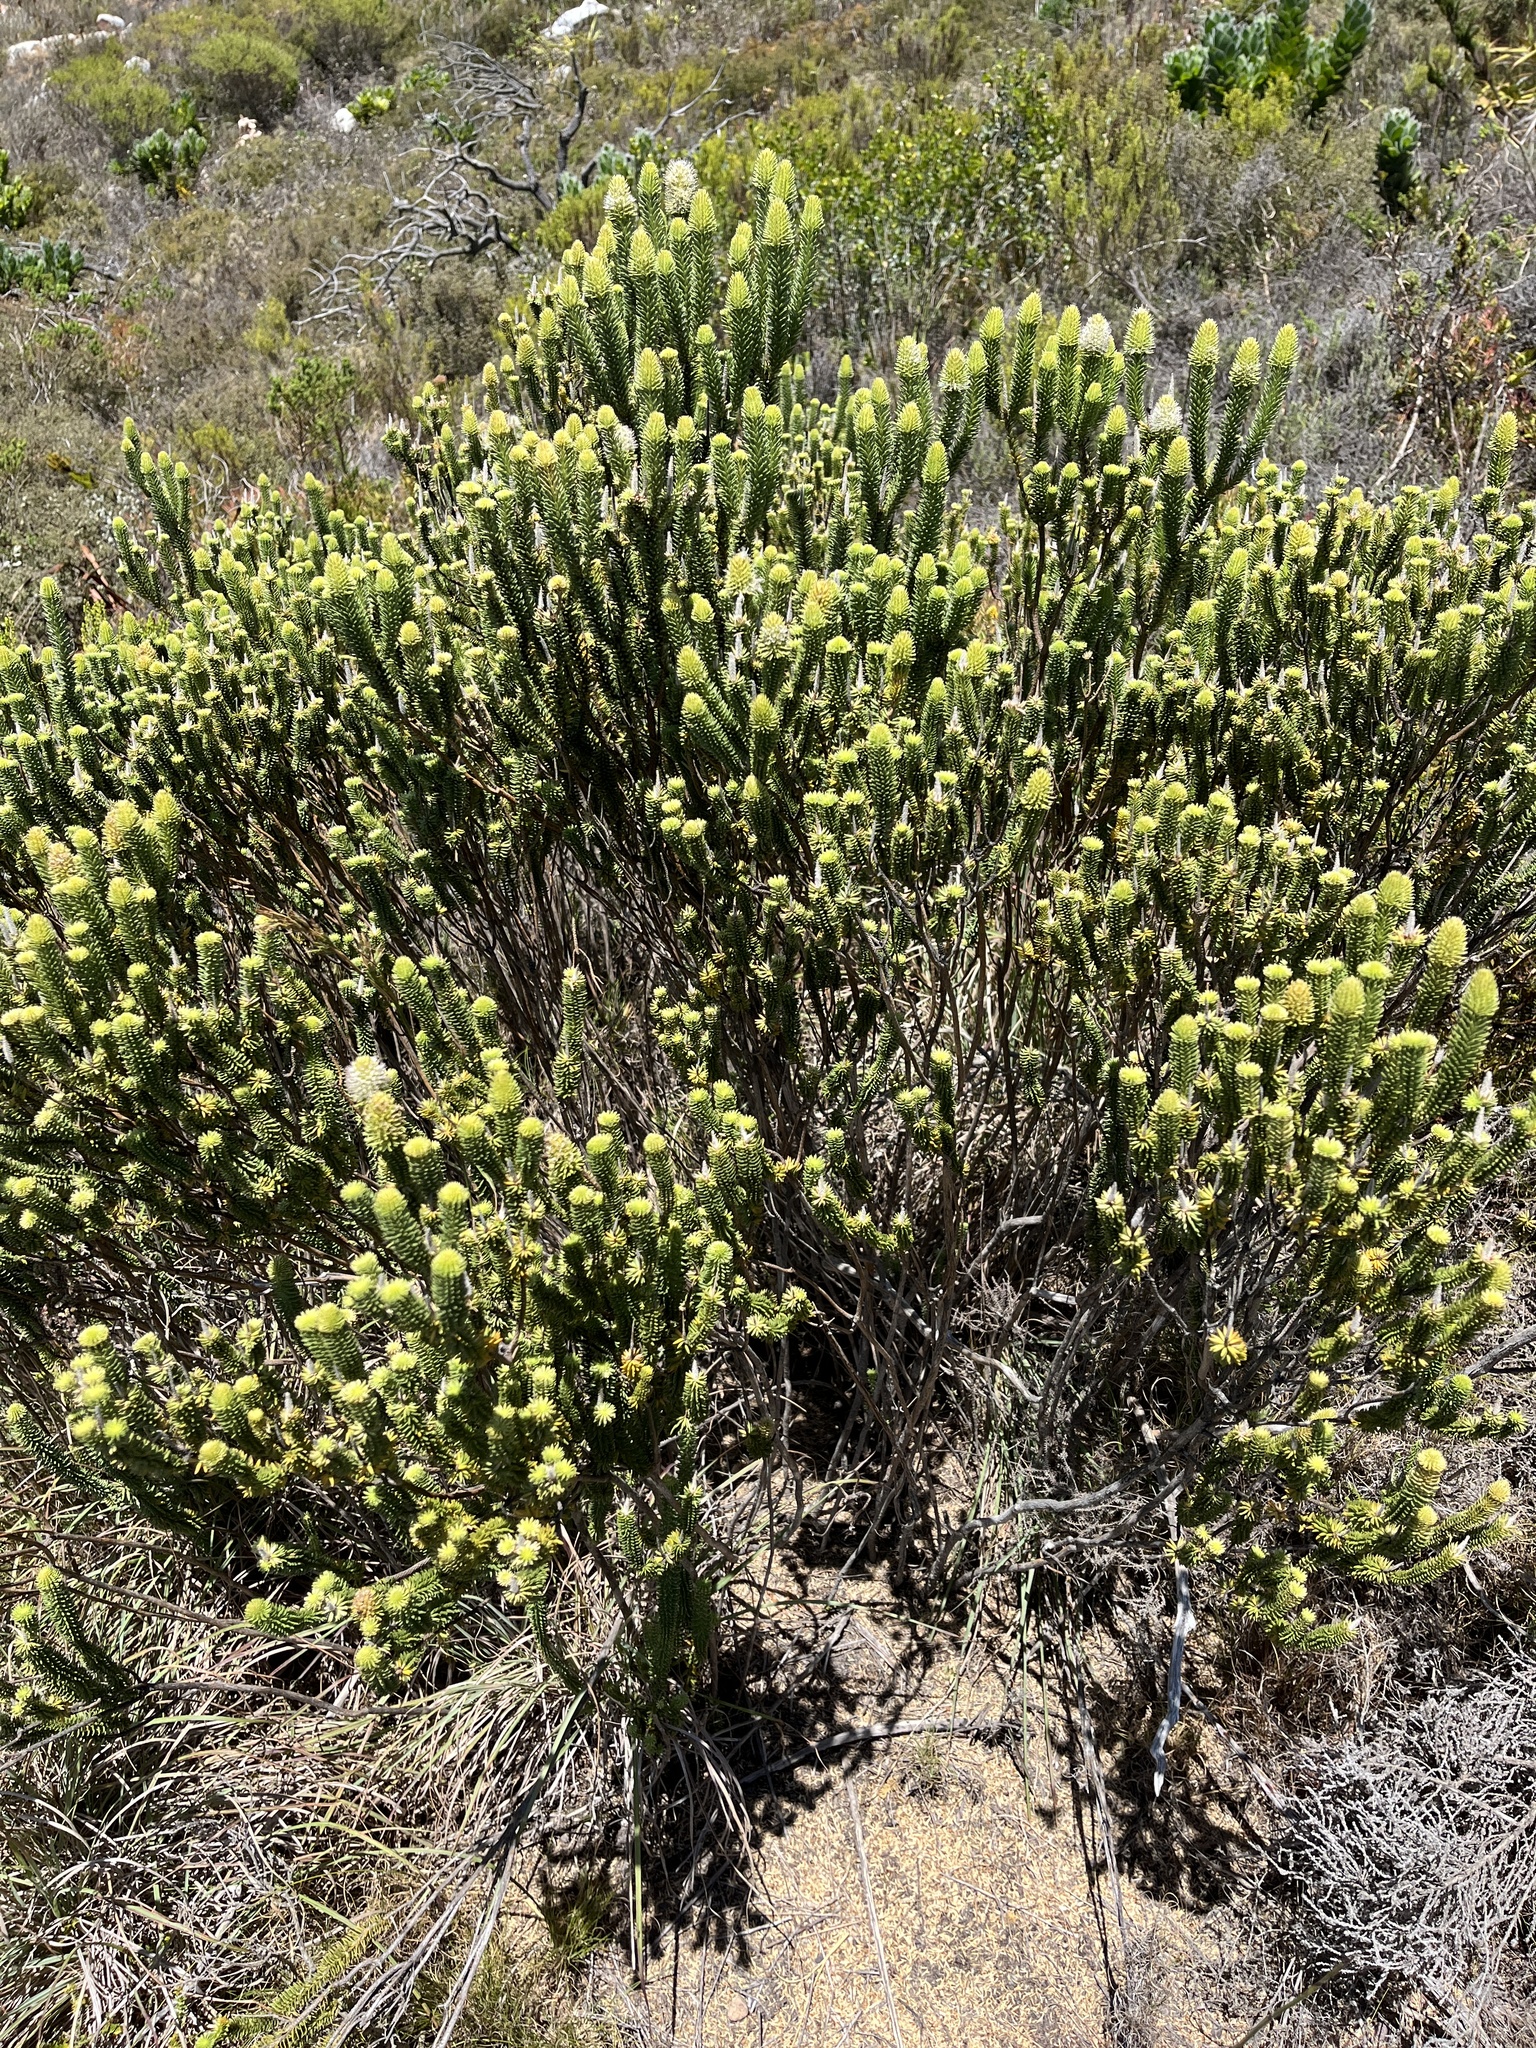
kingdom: Plantae
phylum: Tracheophyta
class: Magnoliopsida
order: Lamiales
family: Stilbaceae
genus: Stilbe
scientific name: Stilbe vestita
